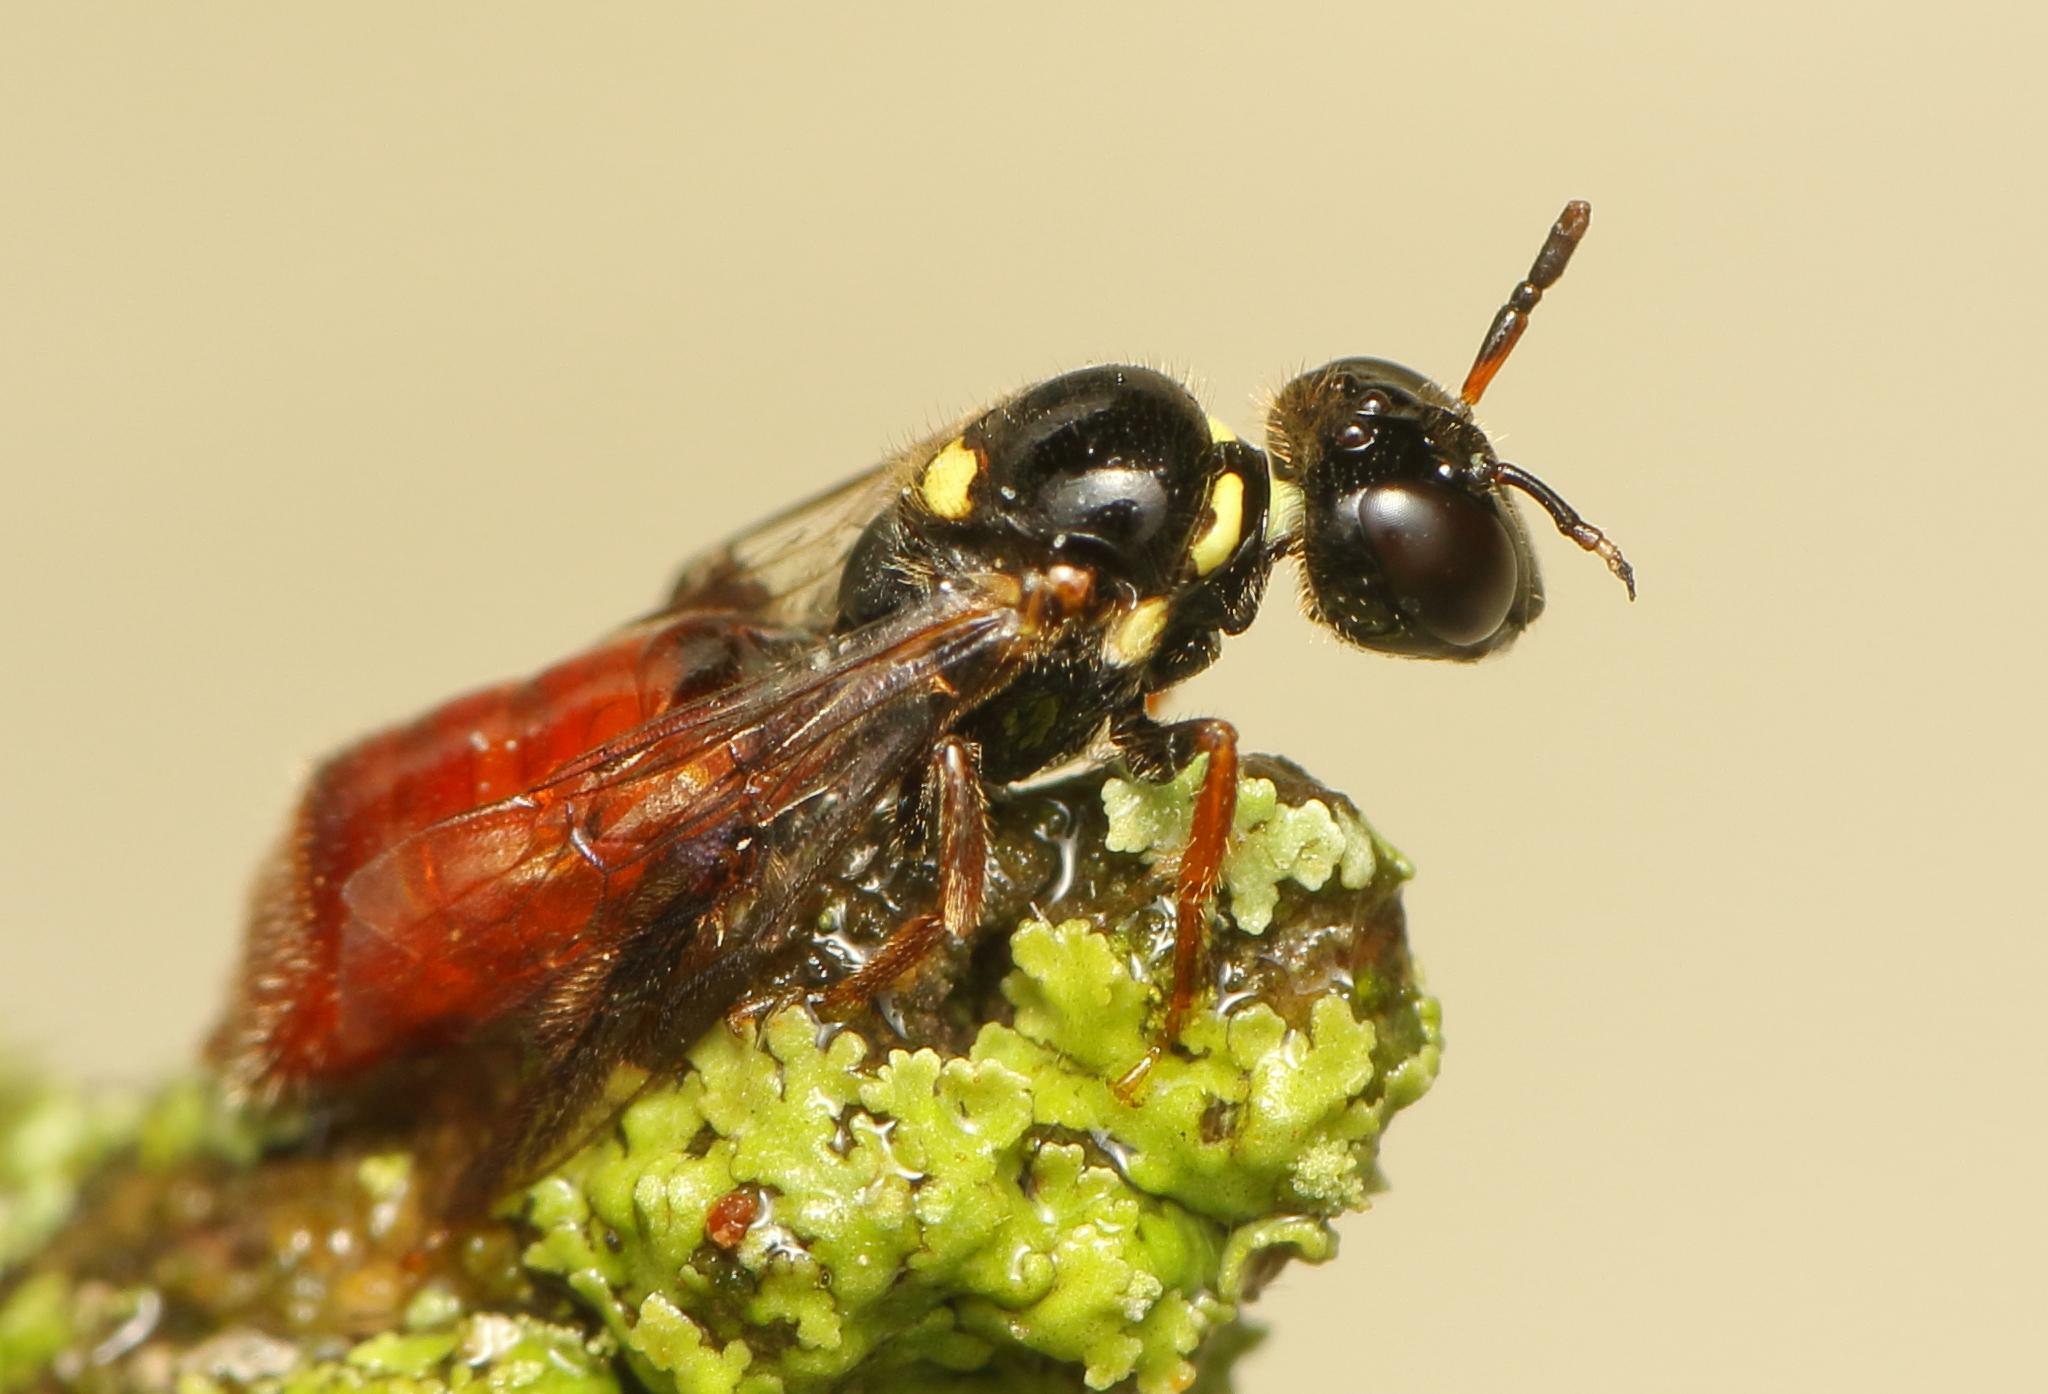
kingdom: Animalia
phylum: Arthropoda
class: Insecta
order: Hymenoptera
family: Apidae
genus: Allodapula
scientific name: Allodapula melanopus
